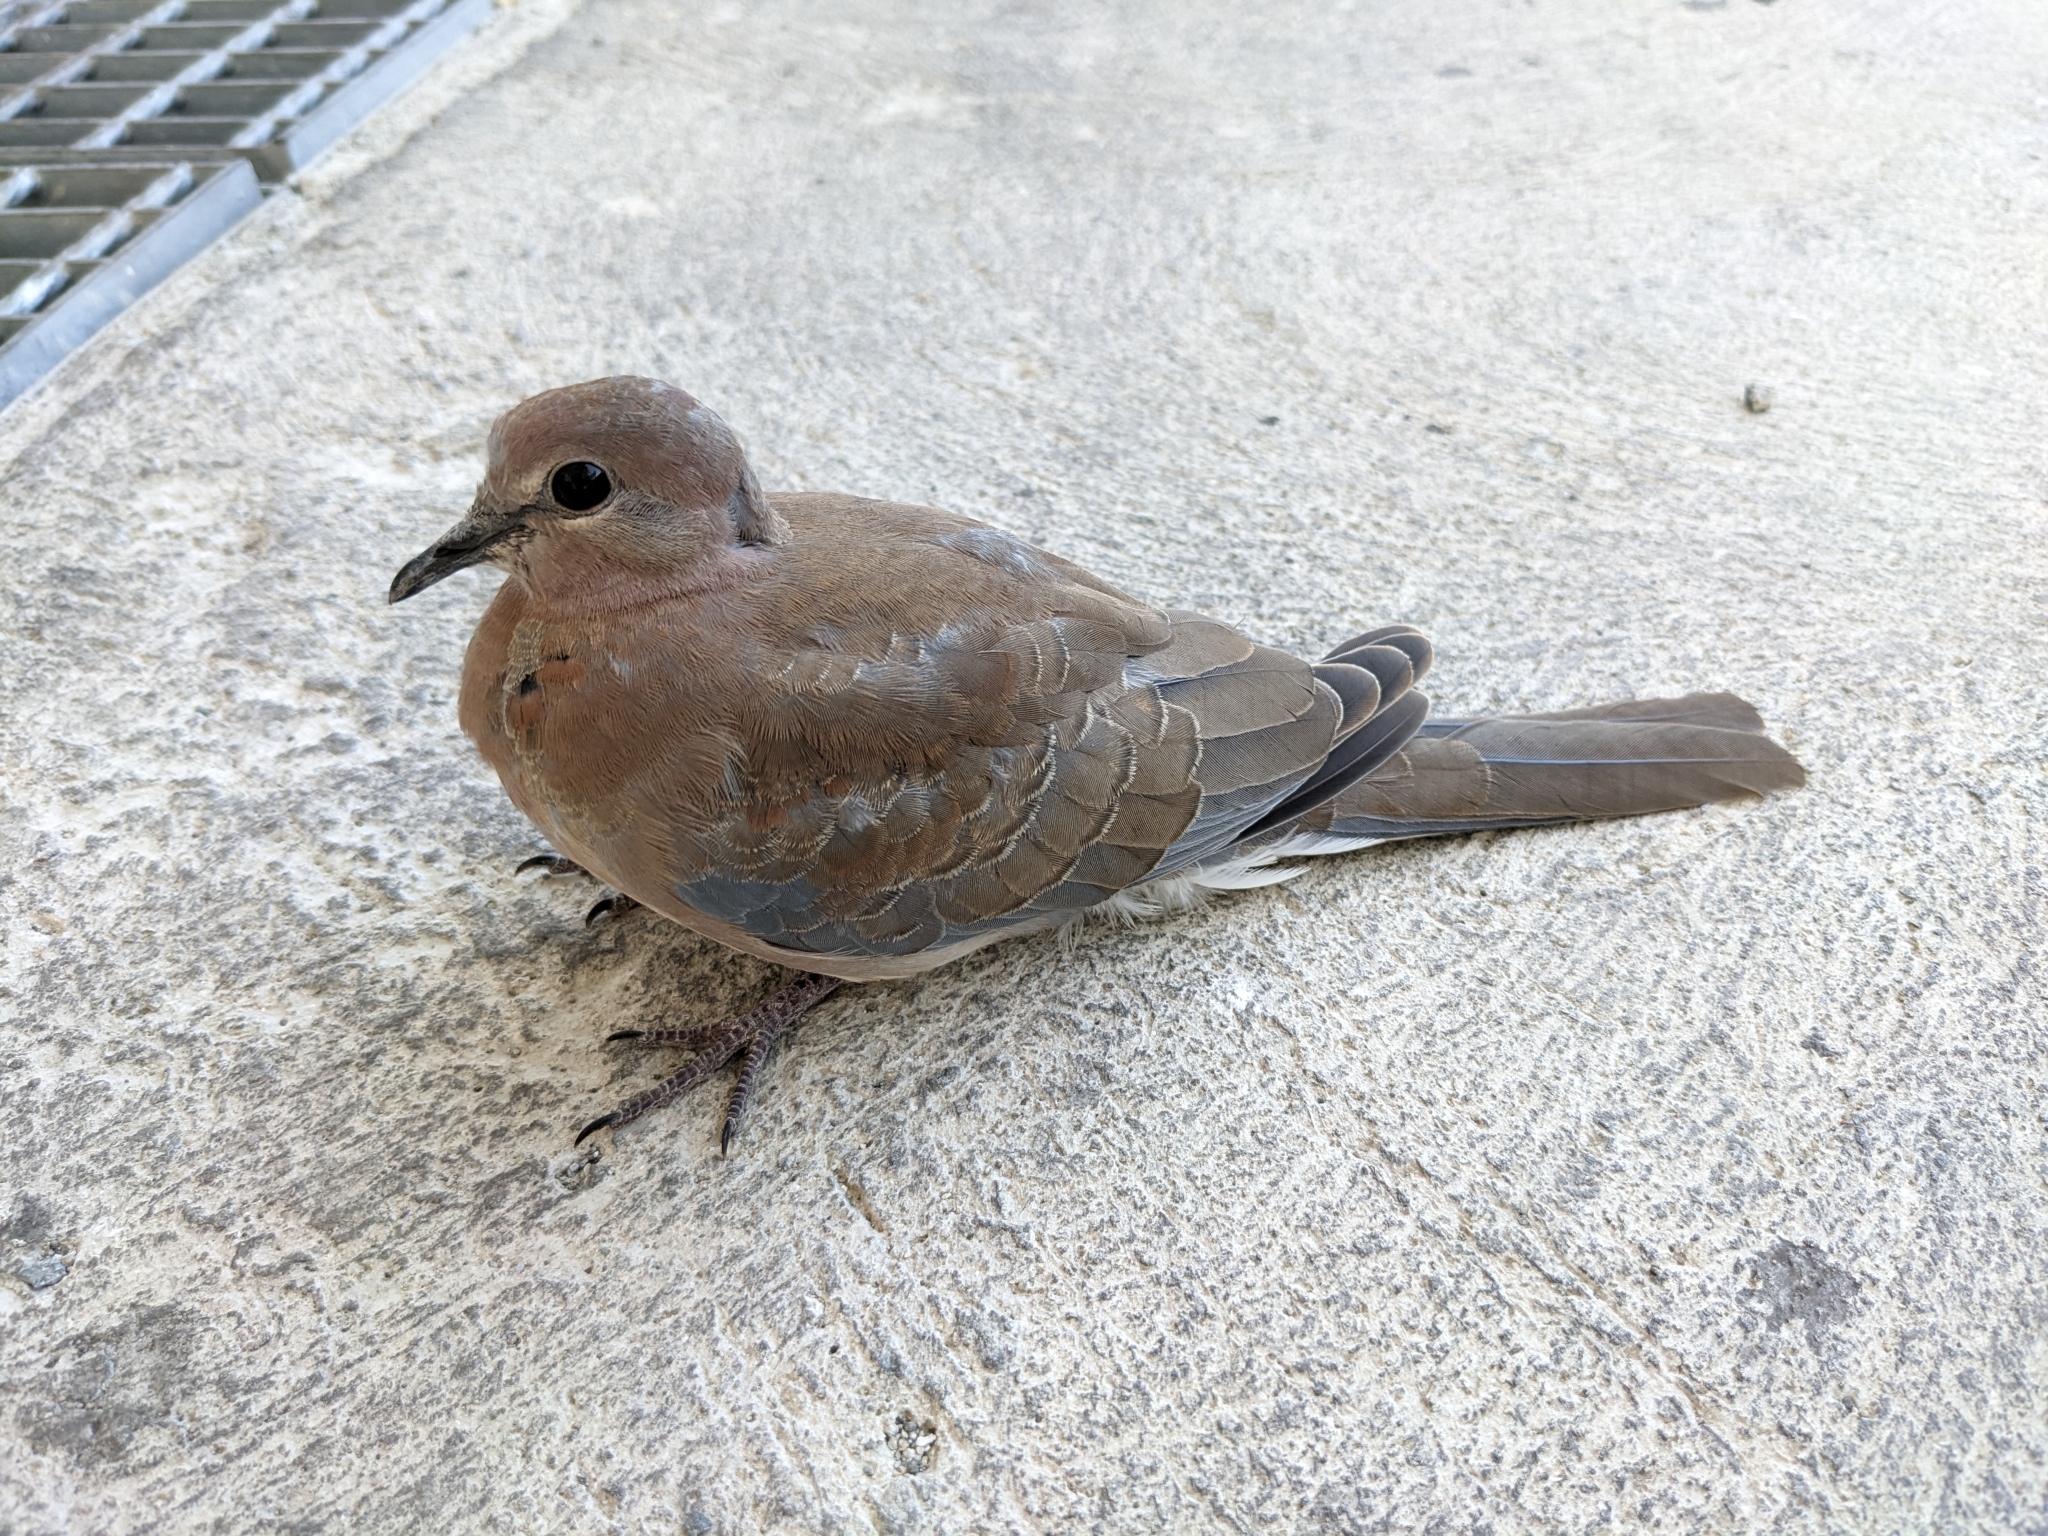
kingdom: Animalia
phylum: Chordata
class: Aves
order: Columbiformes
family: Columbidae
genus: Spilopelia
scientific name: Spilopelia senegalensis
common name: Laughing dove
